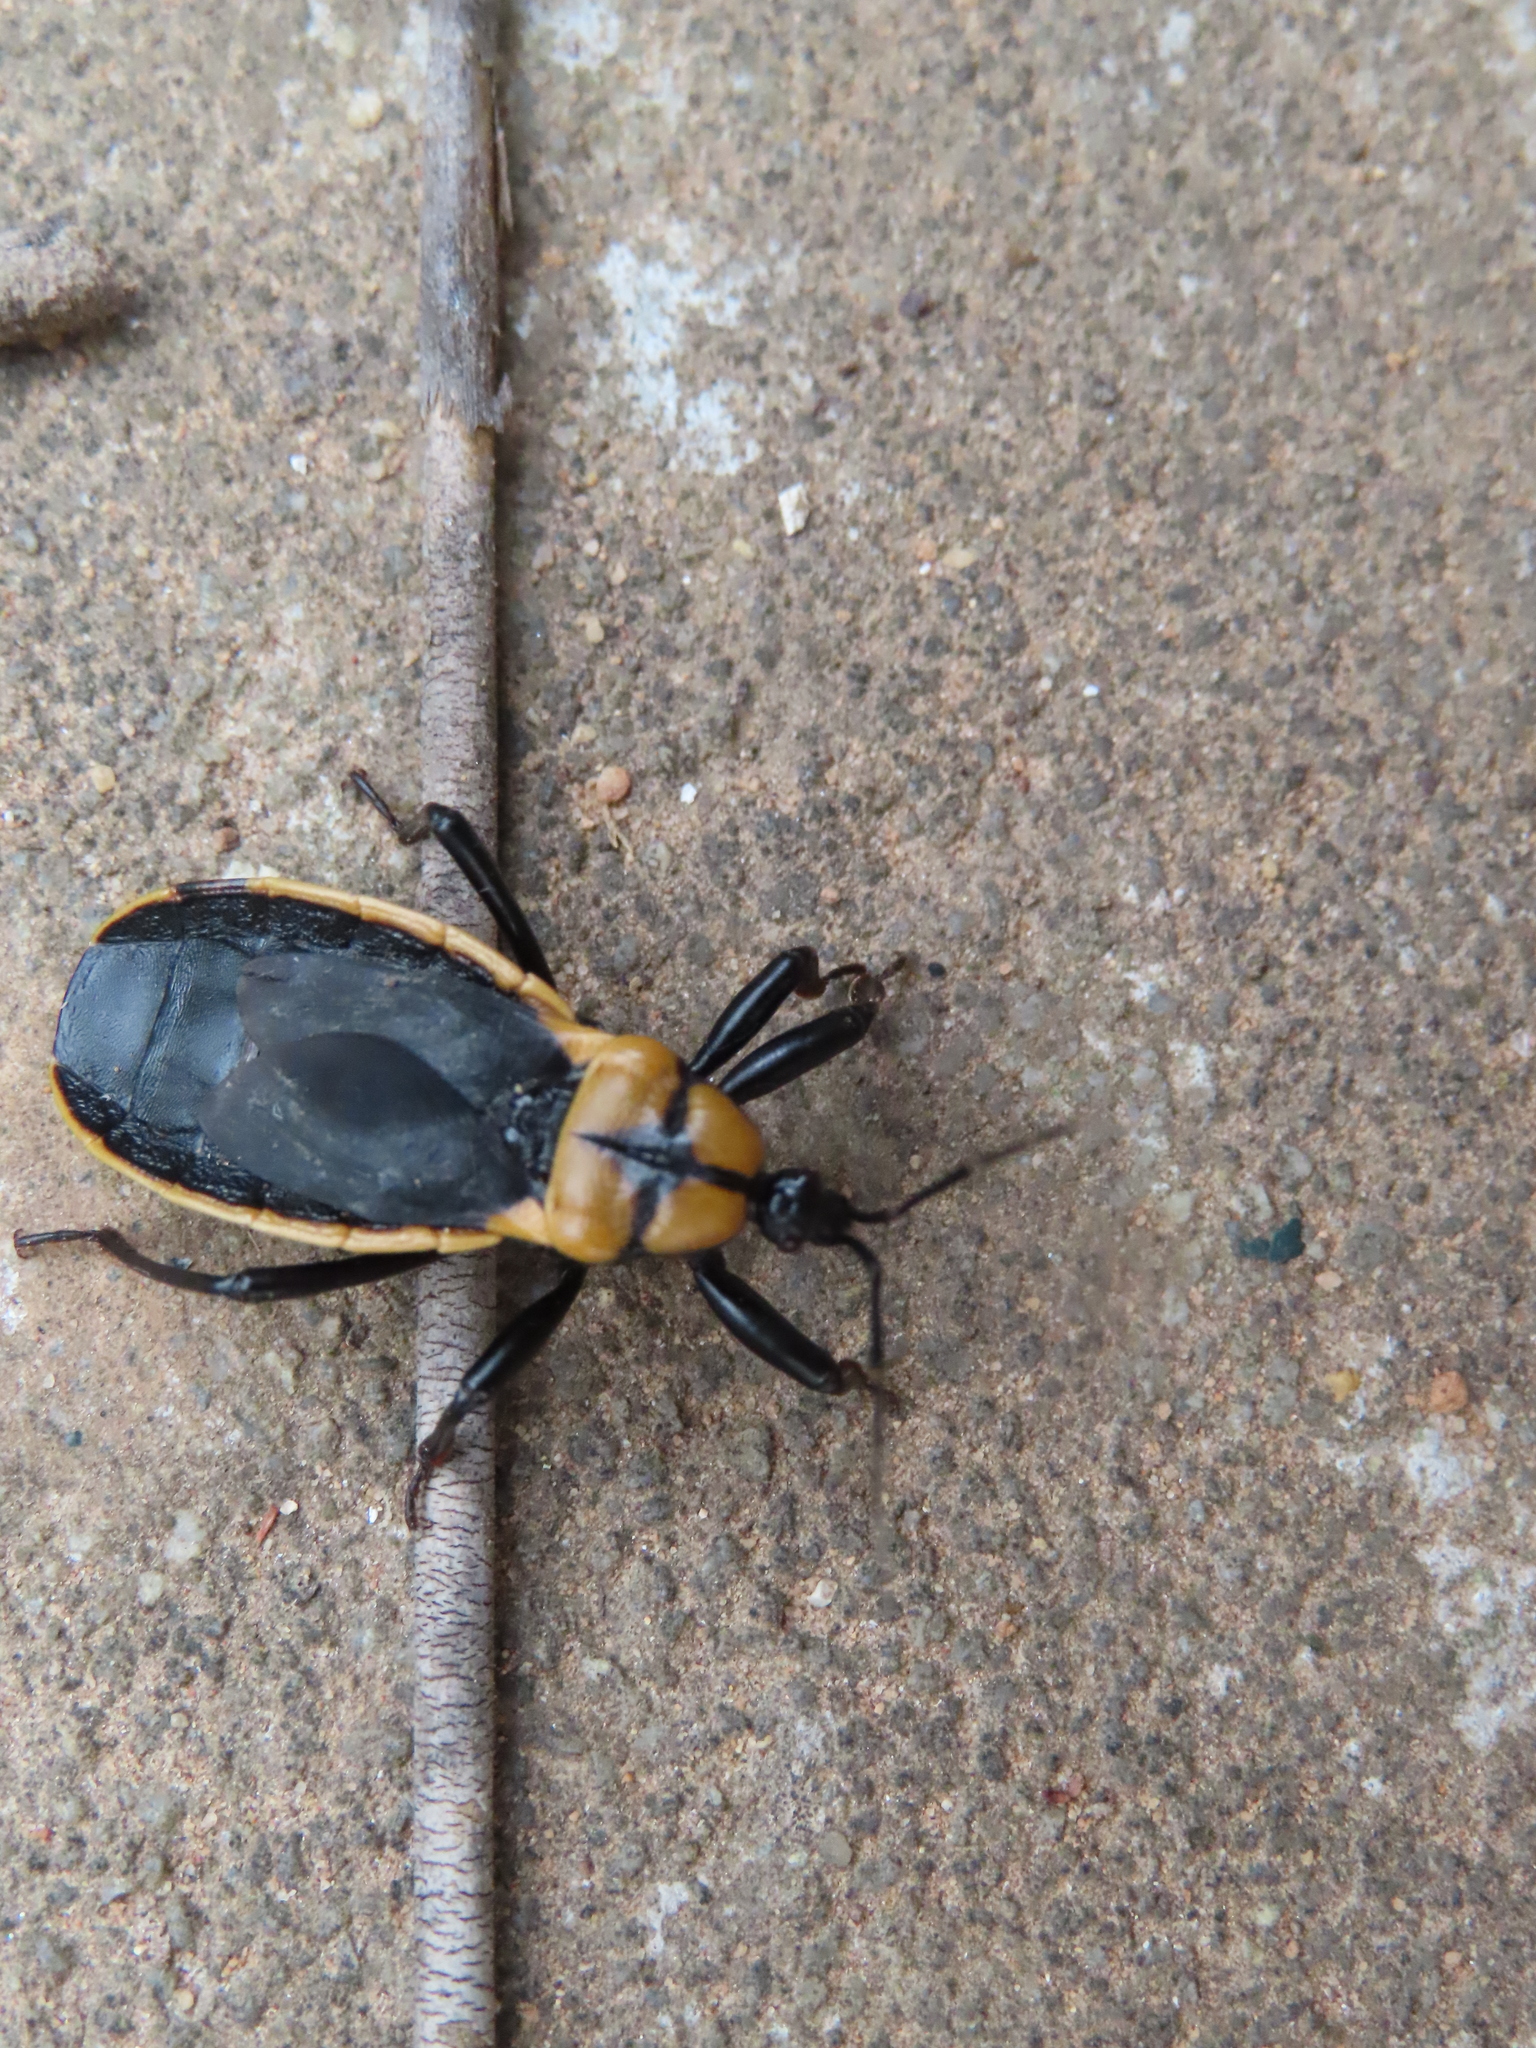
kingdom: Animalia
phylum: Arthropoda
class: Insecta
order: Hemiptera
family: Reduviidae
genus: Ectrichodia
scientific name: Ectrichodia crux
